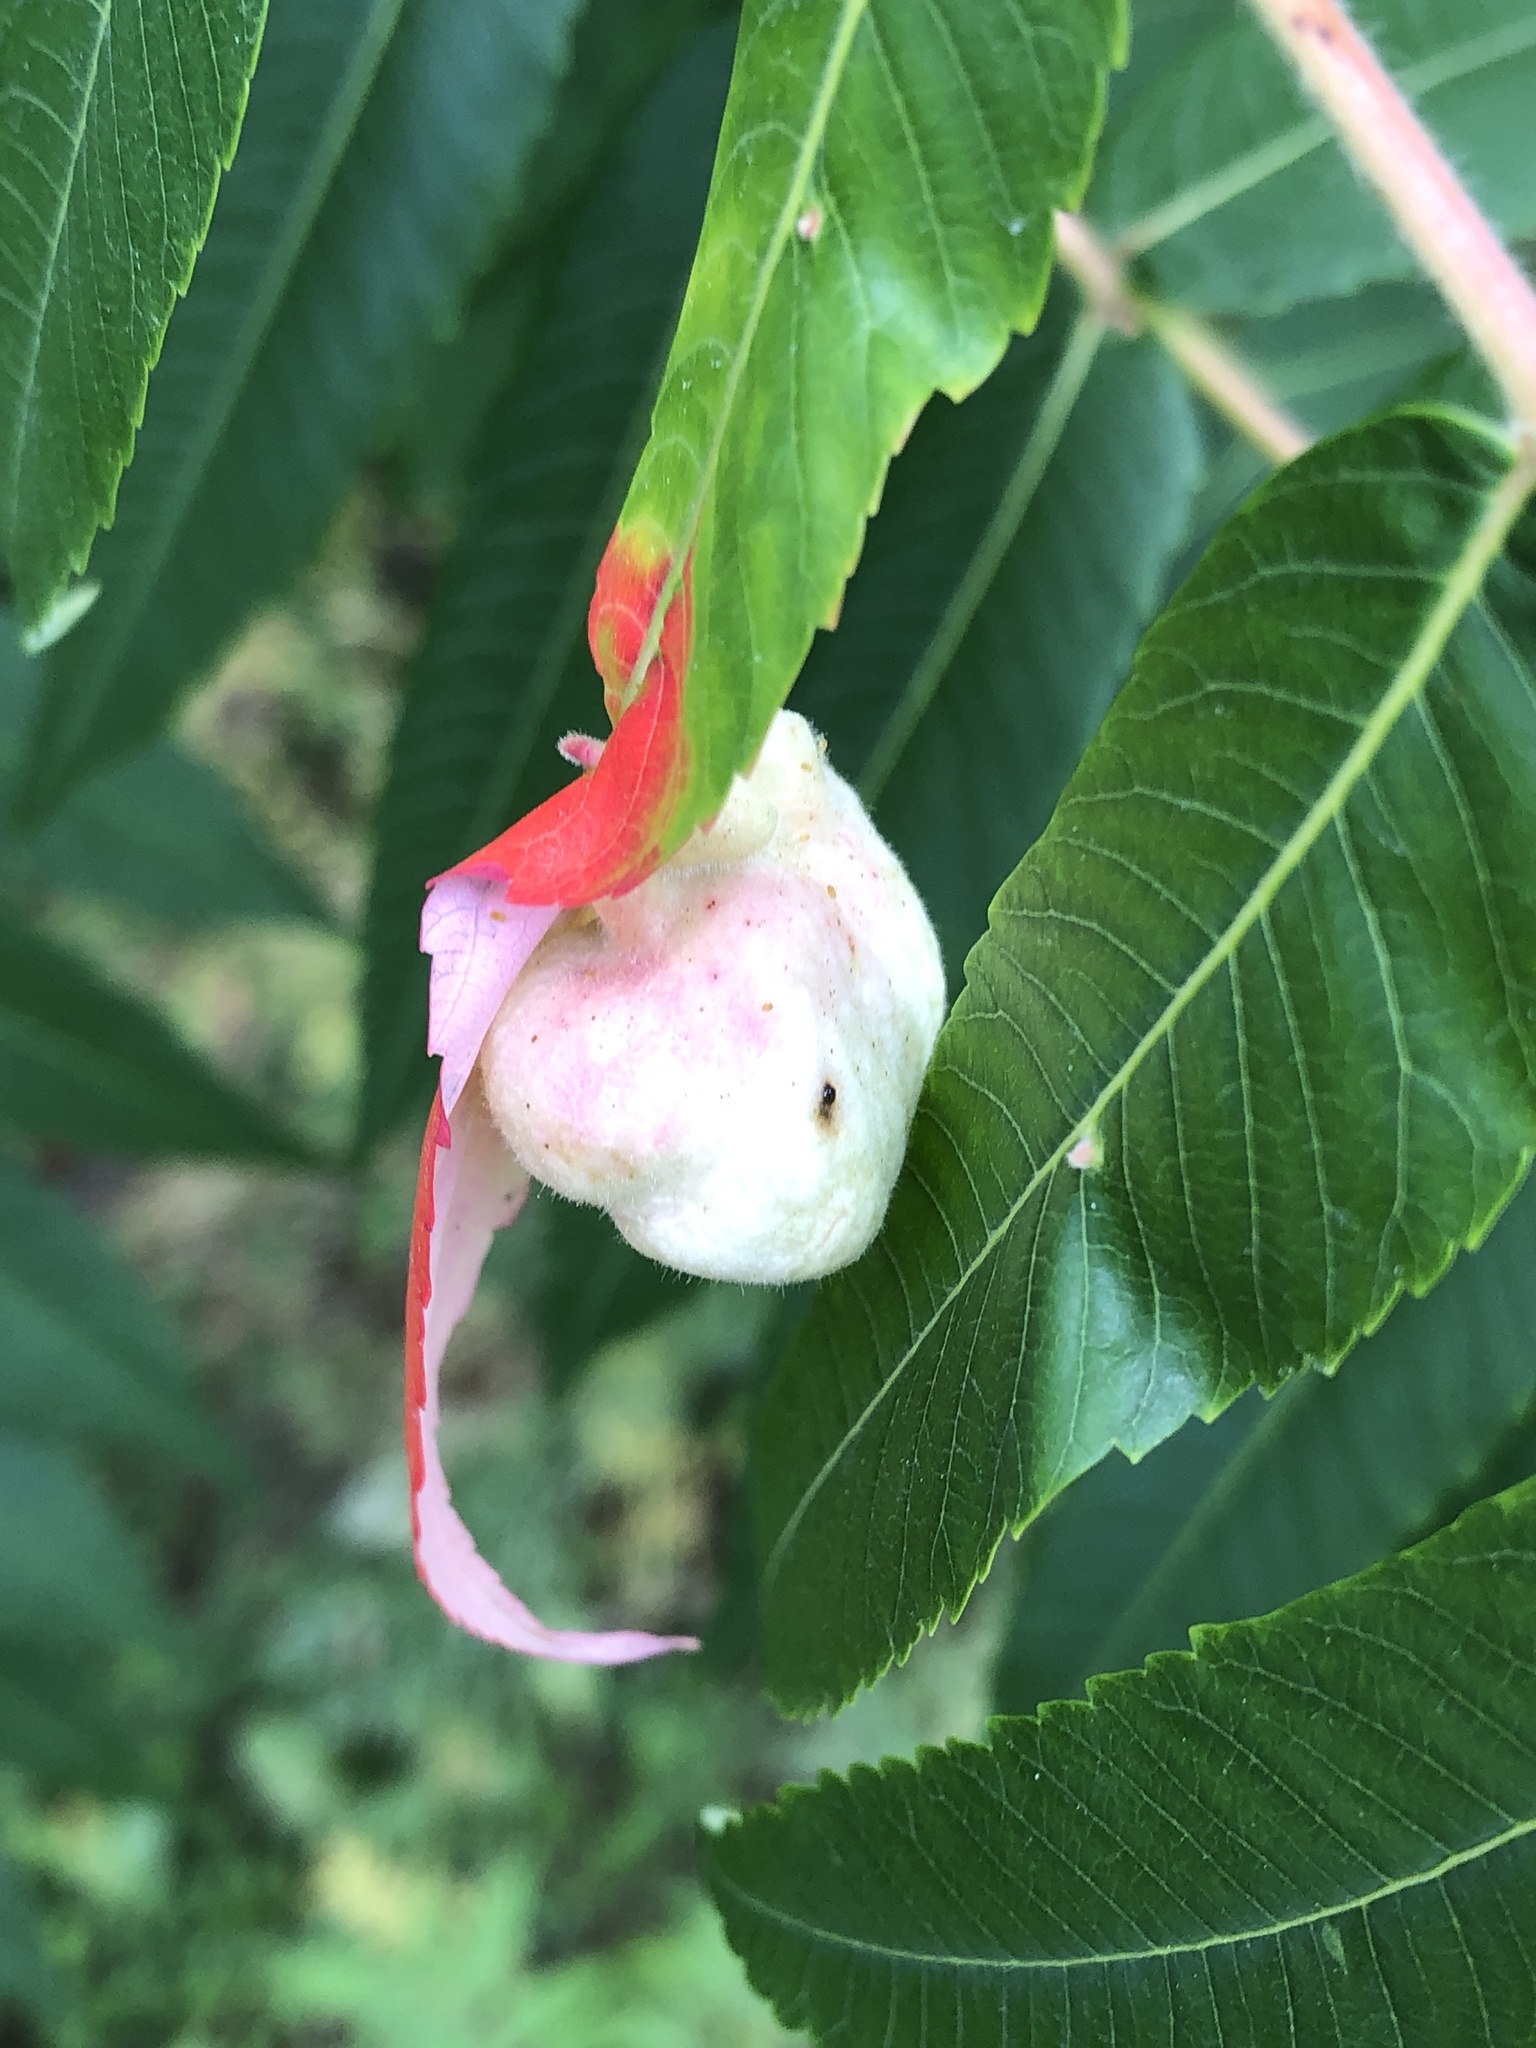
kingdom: Animalia
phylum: Arthropoda
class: Insecta
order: Hemiptera
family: Aphididae
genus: Melaphis
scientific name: Melaphis rhois
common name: Sumac gall aphid
